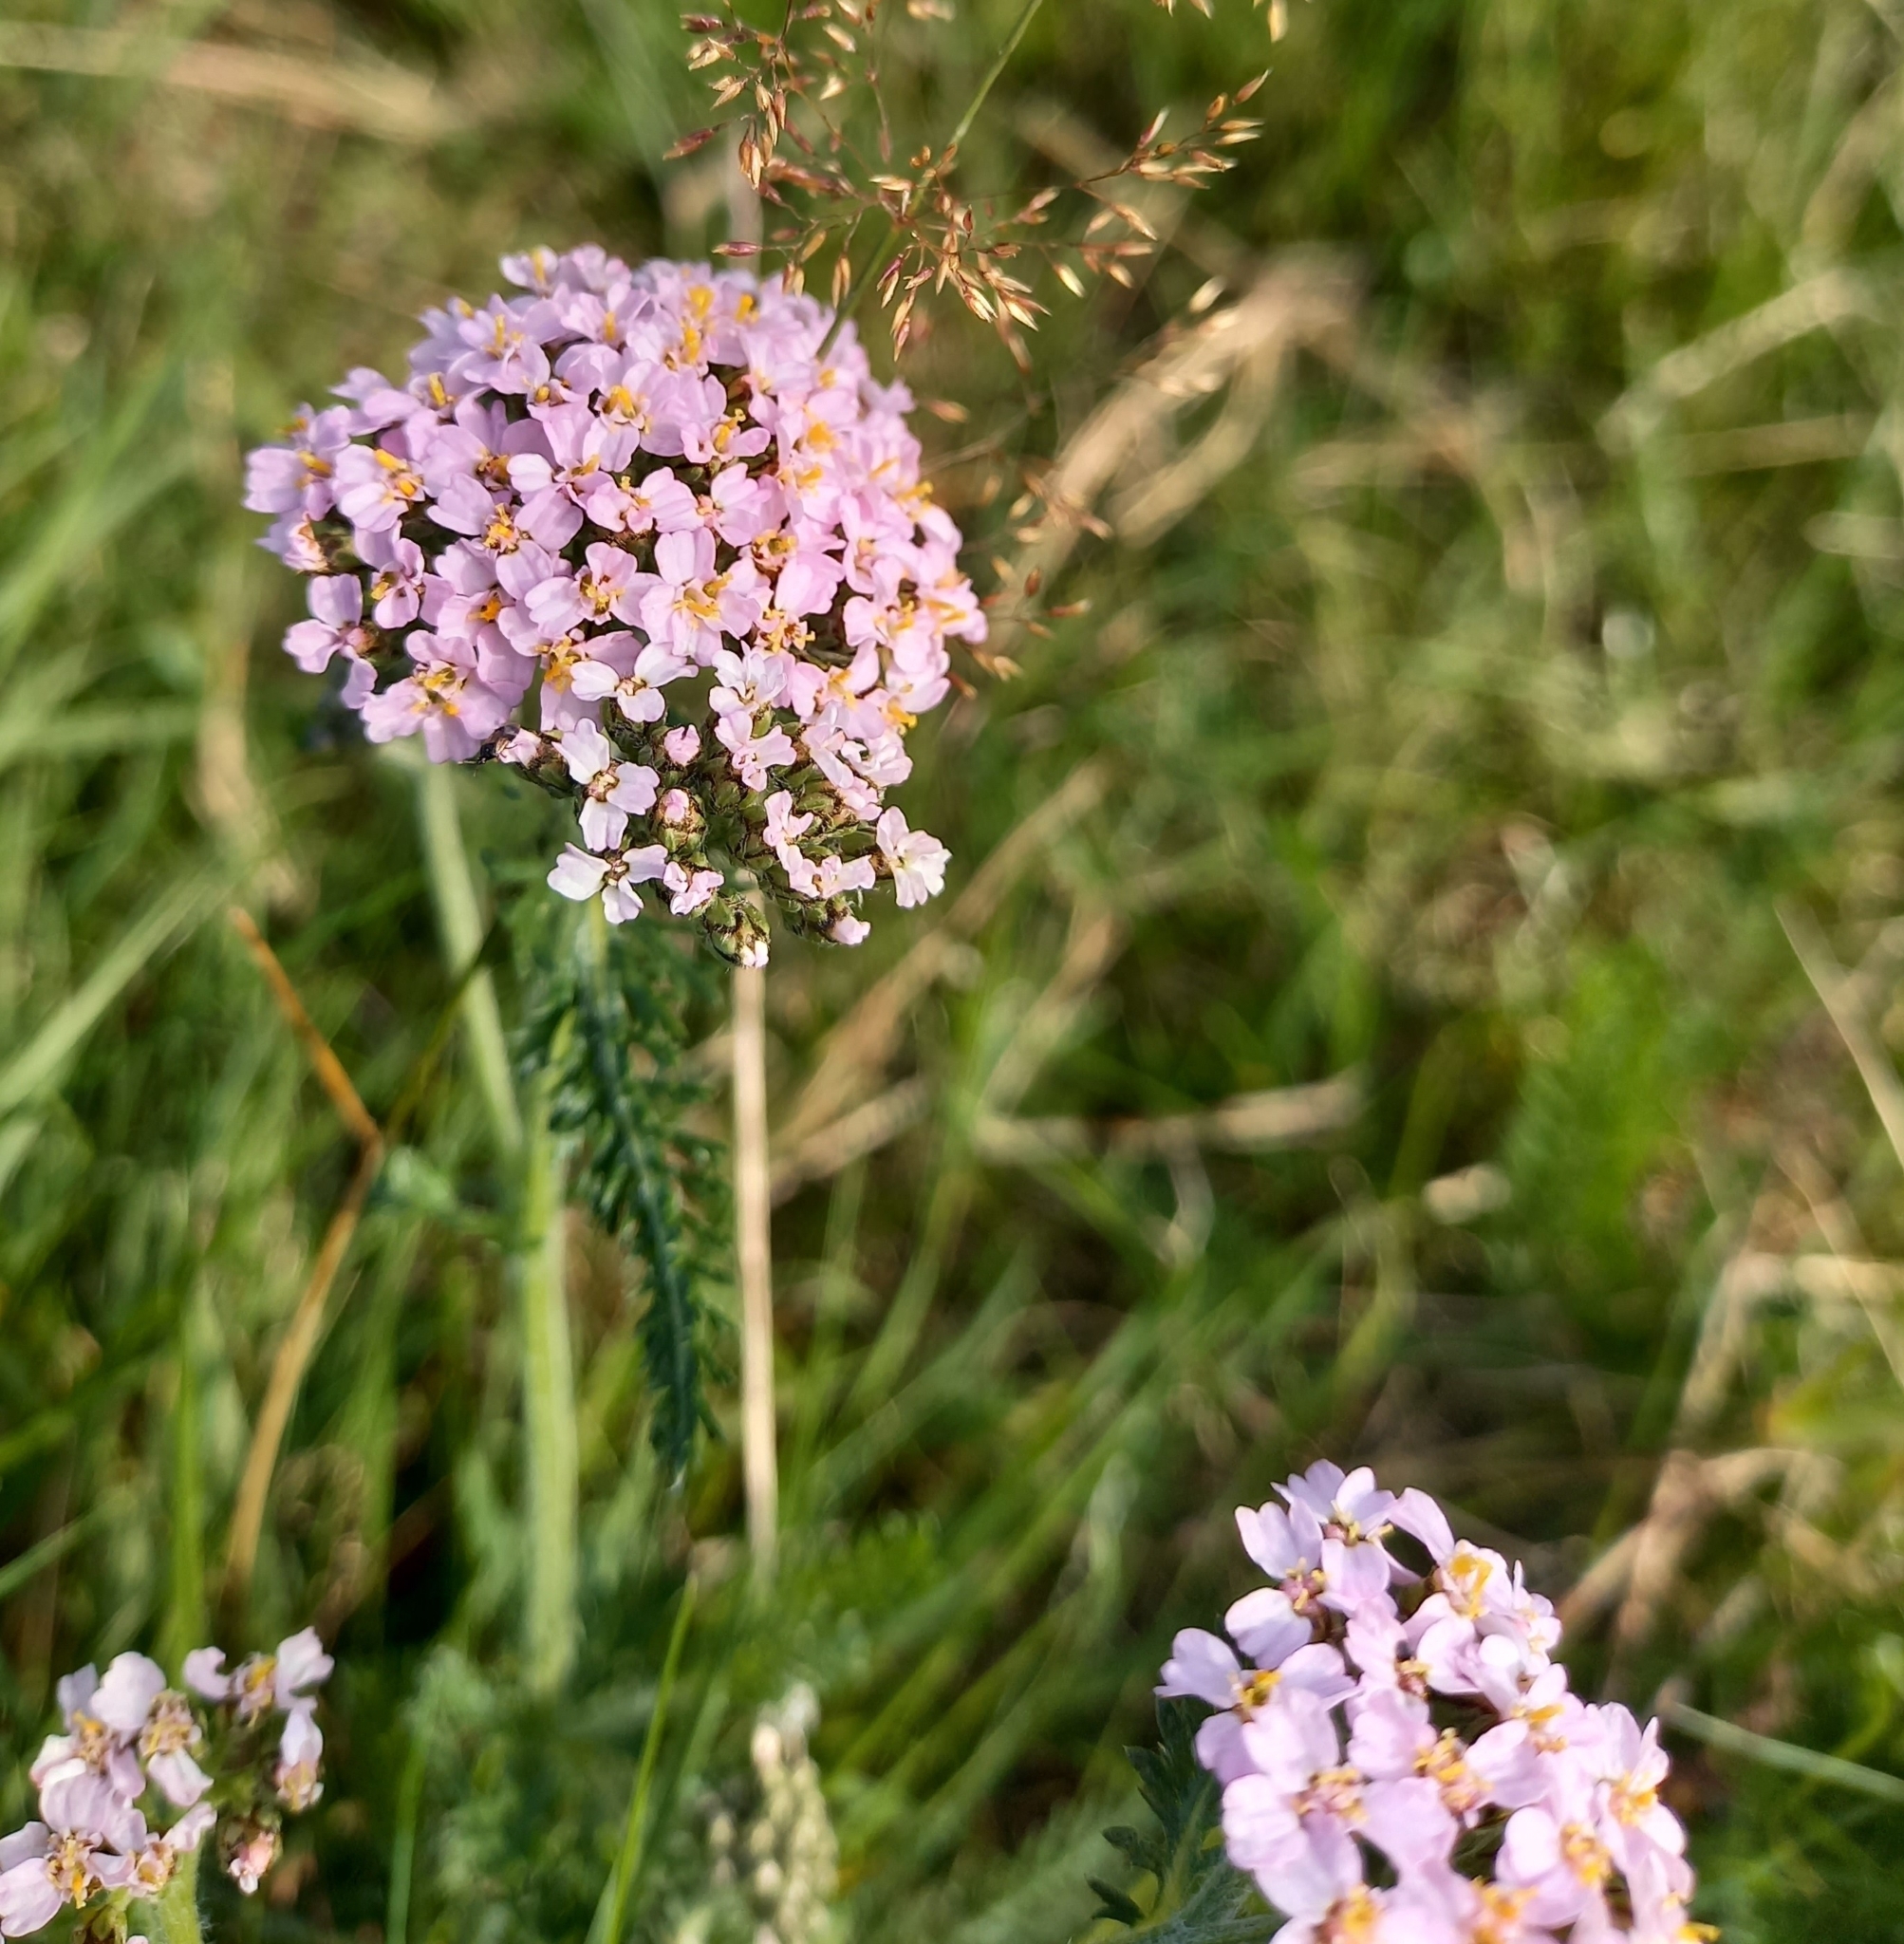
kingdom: Plantae
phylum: Tracheophyta
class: Magnoliopsida
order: Asterales
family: Asteraceae
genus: Achillea
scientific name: Achillea millefolium
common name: Yarrow
